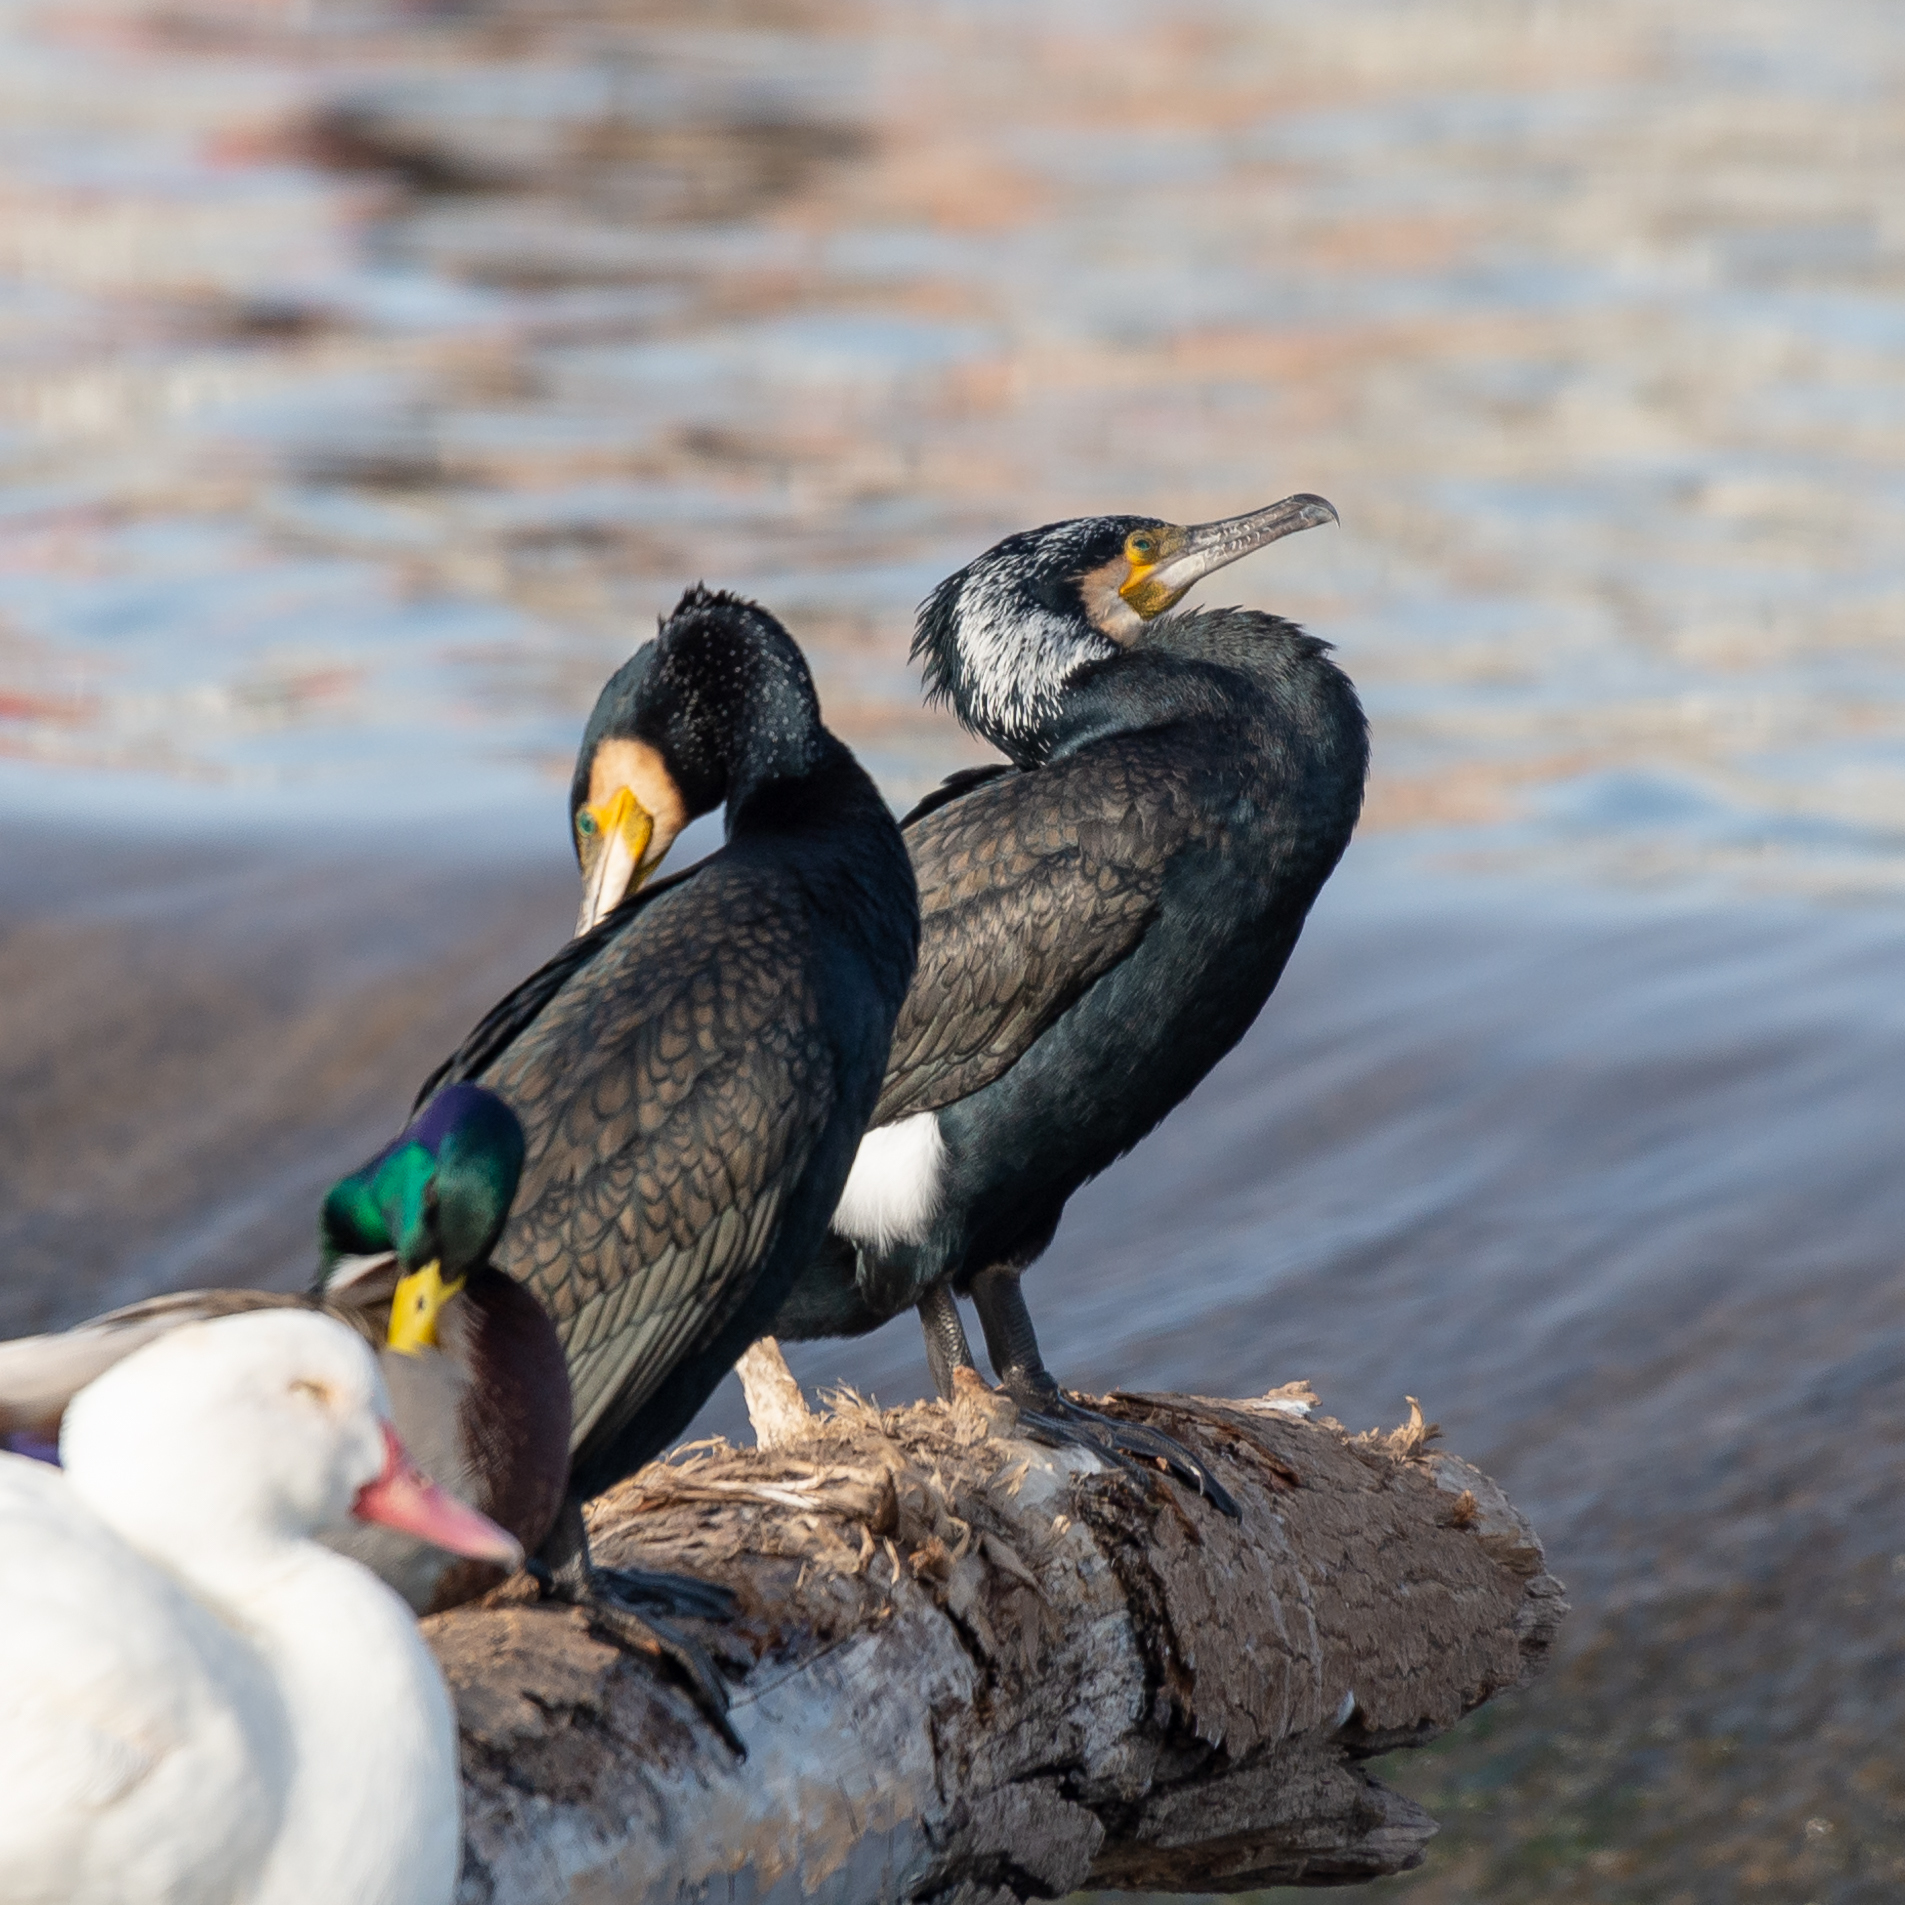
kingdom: Animalia
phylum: Chordata
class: Aves
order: Suliformes
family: Phalacrocoracidae
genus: Phalacrocorax
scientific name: Phalacrocorax carbo
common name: Great cormorant
